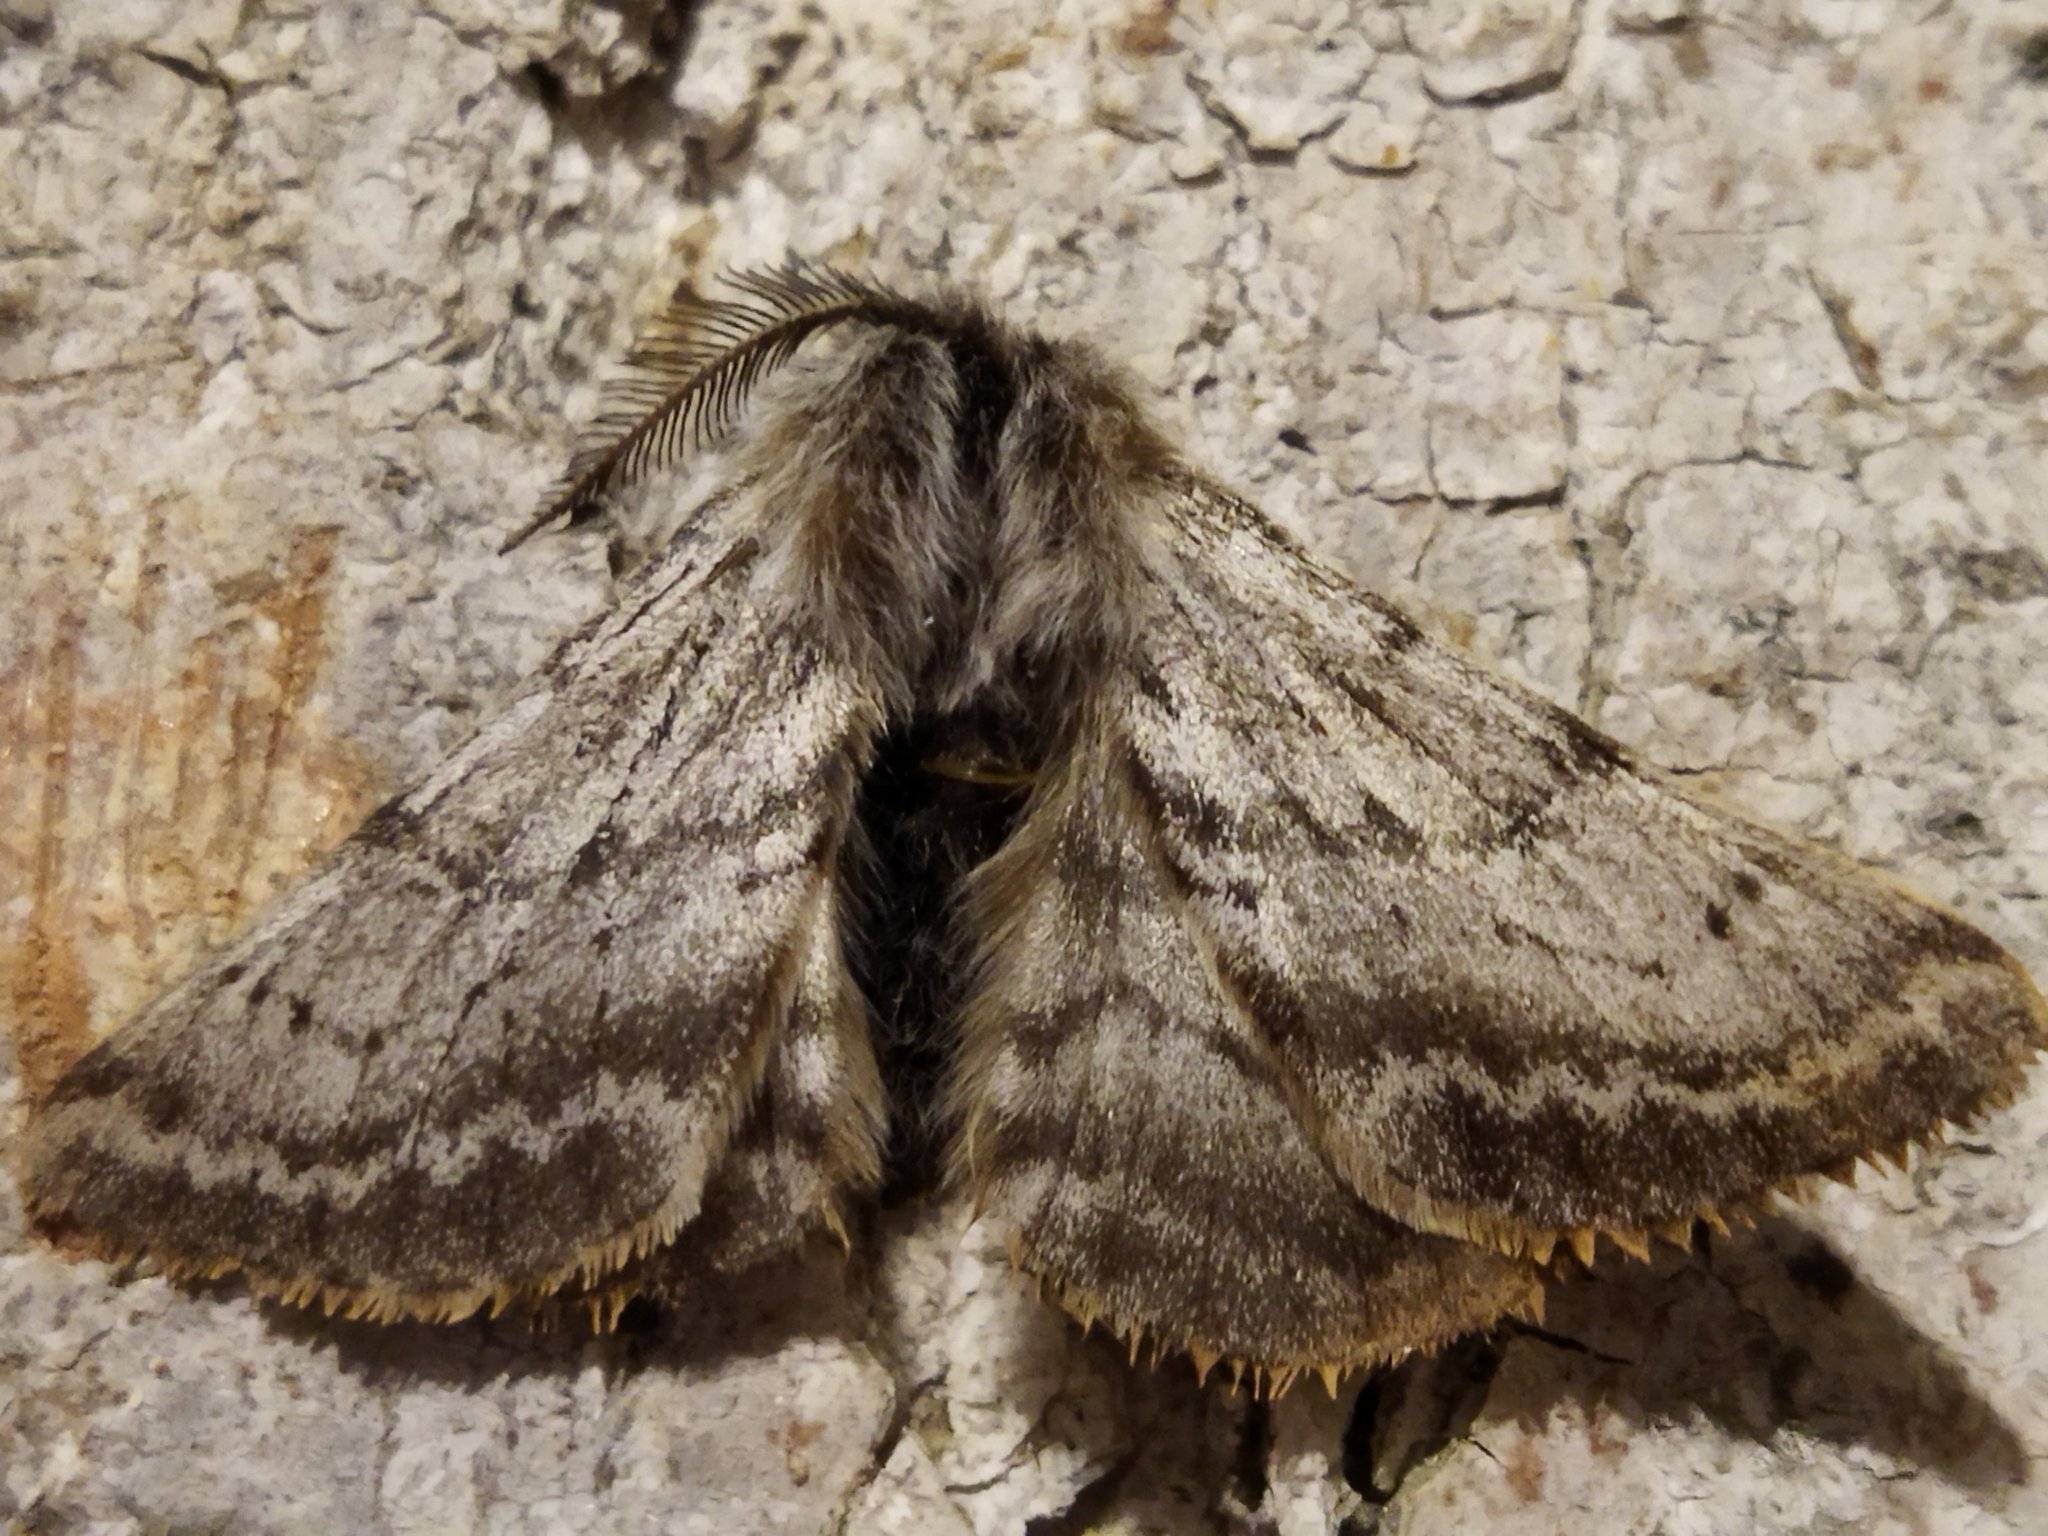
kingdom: Animalia
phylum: Arthropoda
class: Insecta
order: Lepidoptera
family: Geometridae
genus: Lycia
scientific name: Lycia graecarius
